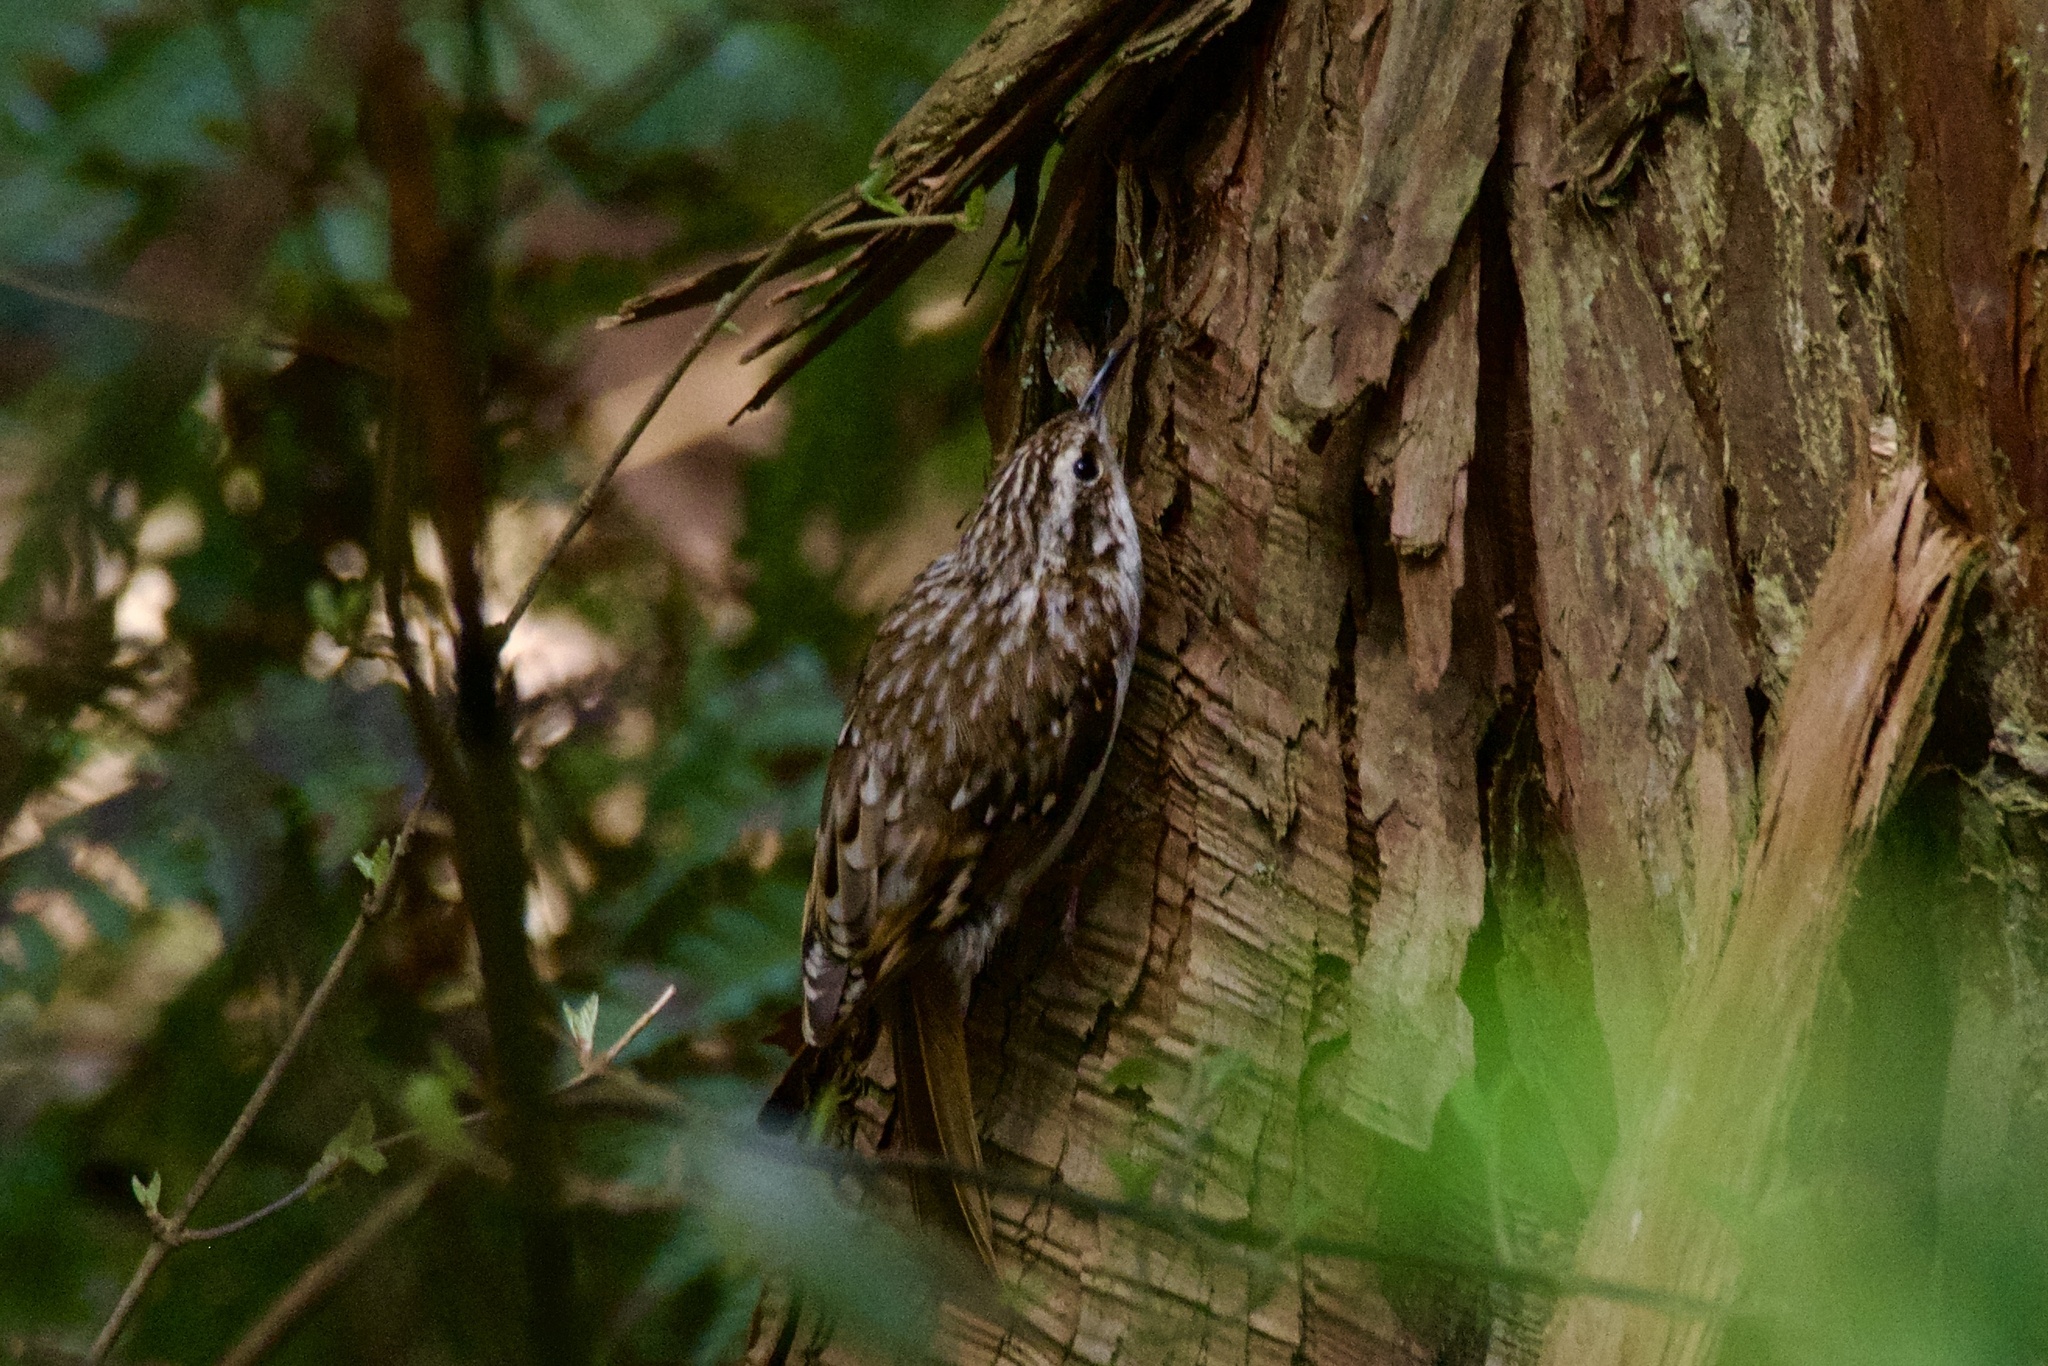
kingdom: Animalia
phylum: Chordata
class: Aves
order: Passeriformes
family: Certhiidae
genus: Certhia
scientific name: Certhia familiaris
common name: Eurasian treecreeper
